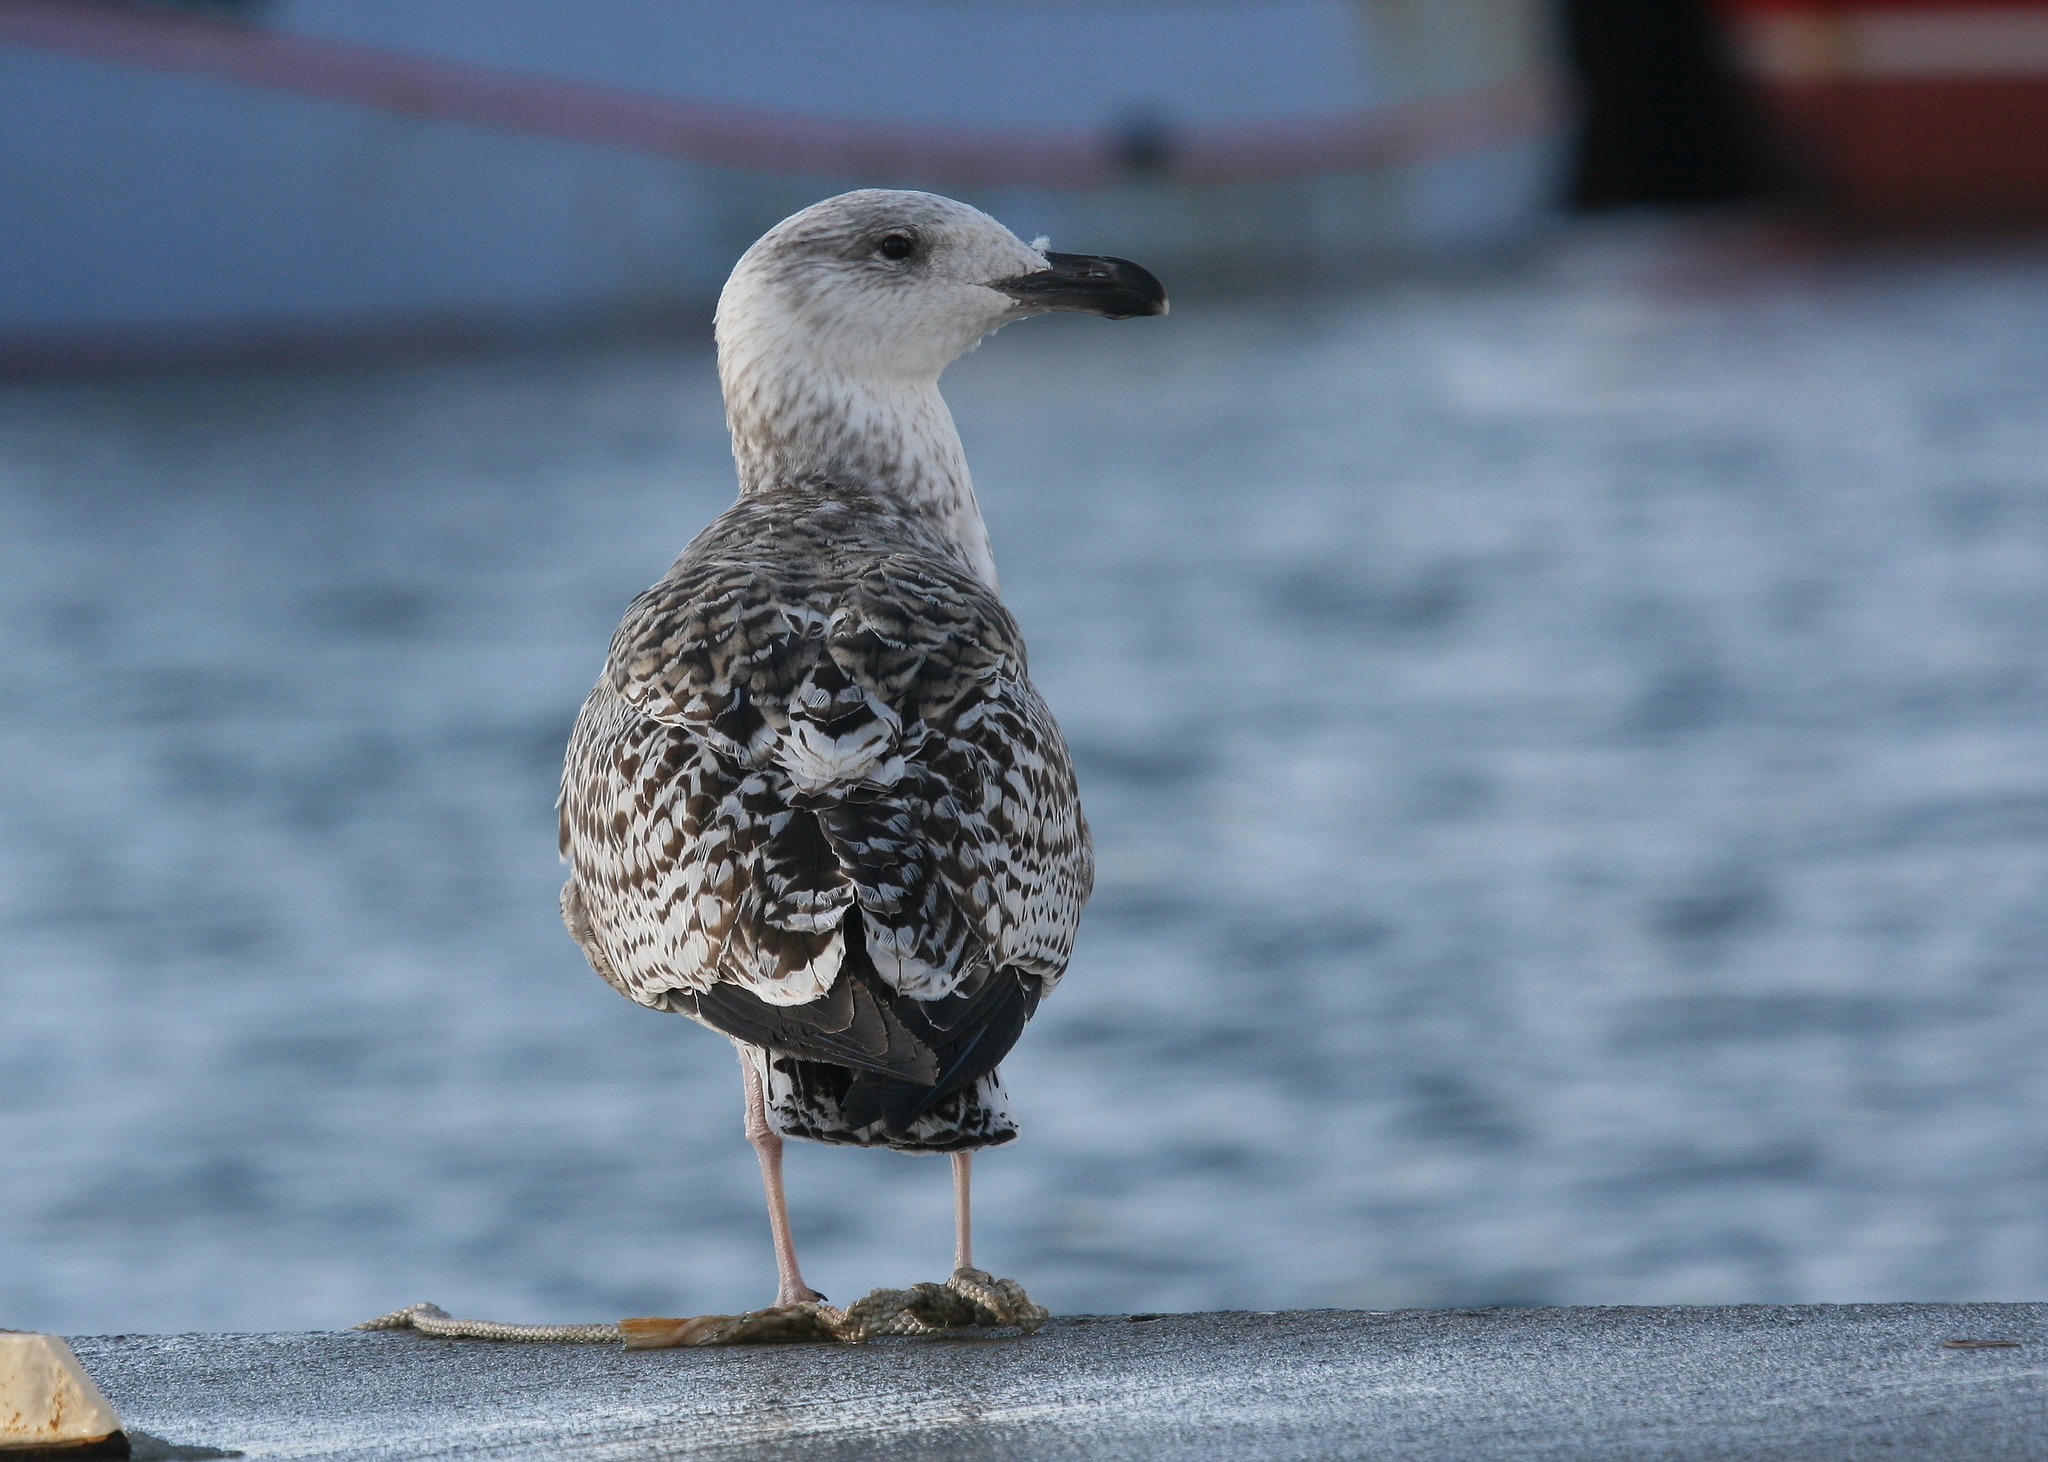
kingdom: Animalia
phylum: Chordata
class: Aves
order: Charadriiformes
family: Laridae
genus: Larus
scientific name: Larus marinus
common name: Great black-backed gull
